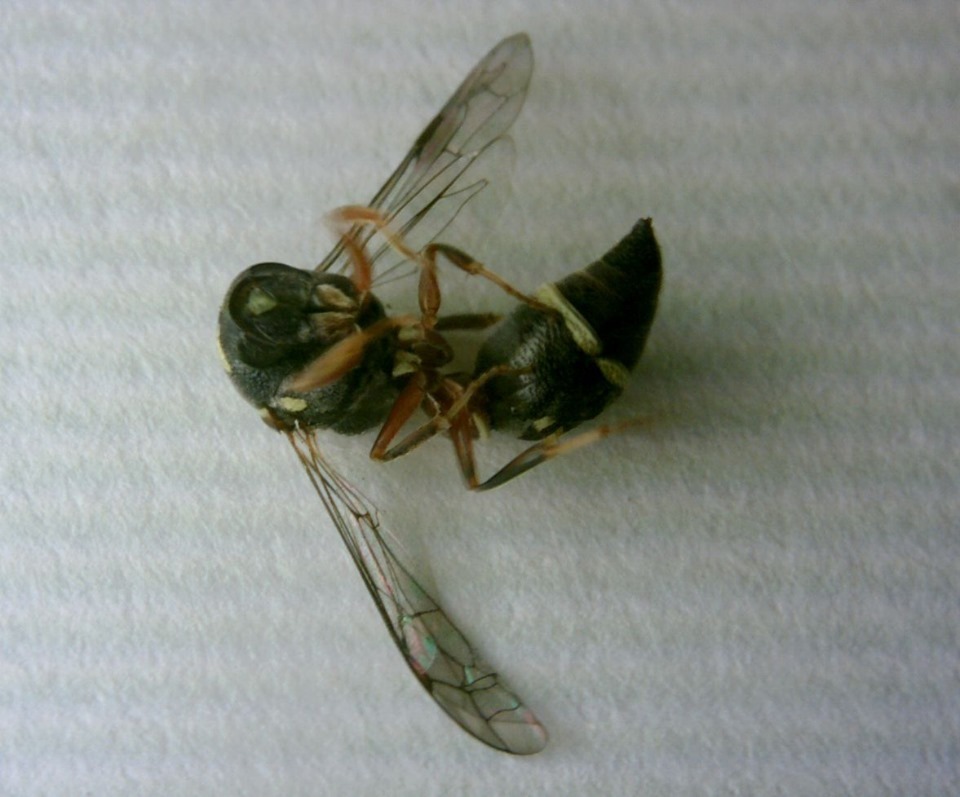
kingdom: Animalia
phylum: Arthropoda
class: Insecta
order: Hymenoptera
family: Eumenidae
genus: Paraleptomenes
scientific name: Paraleptomenes miniatus
